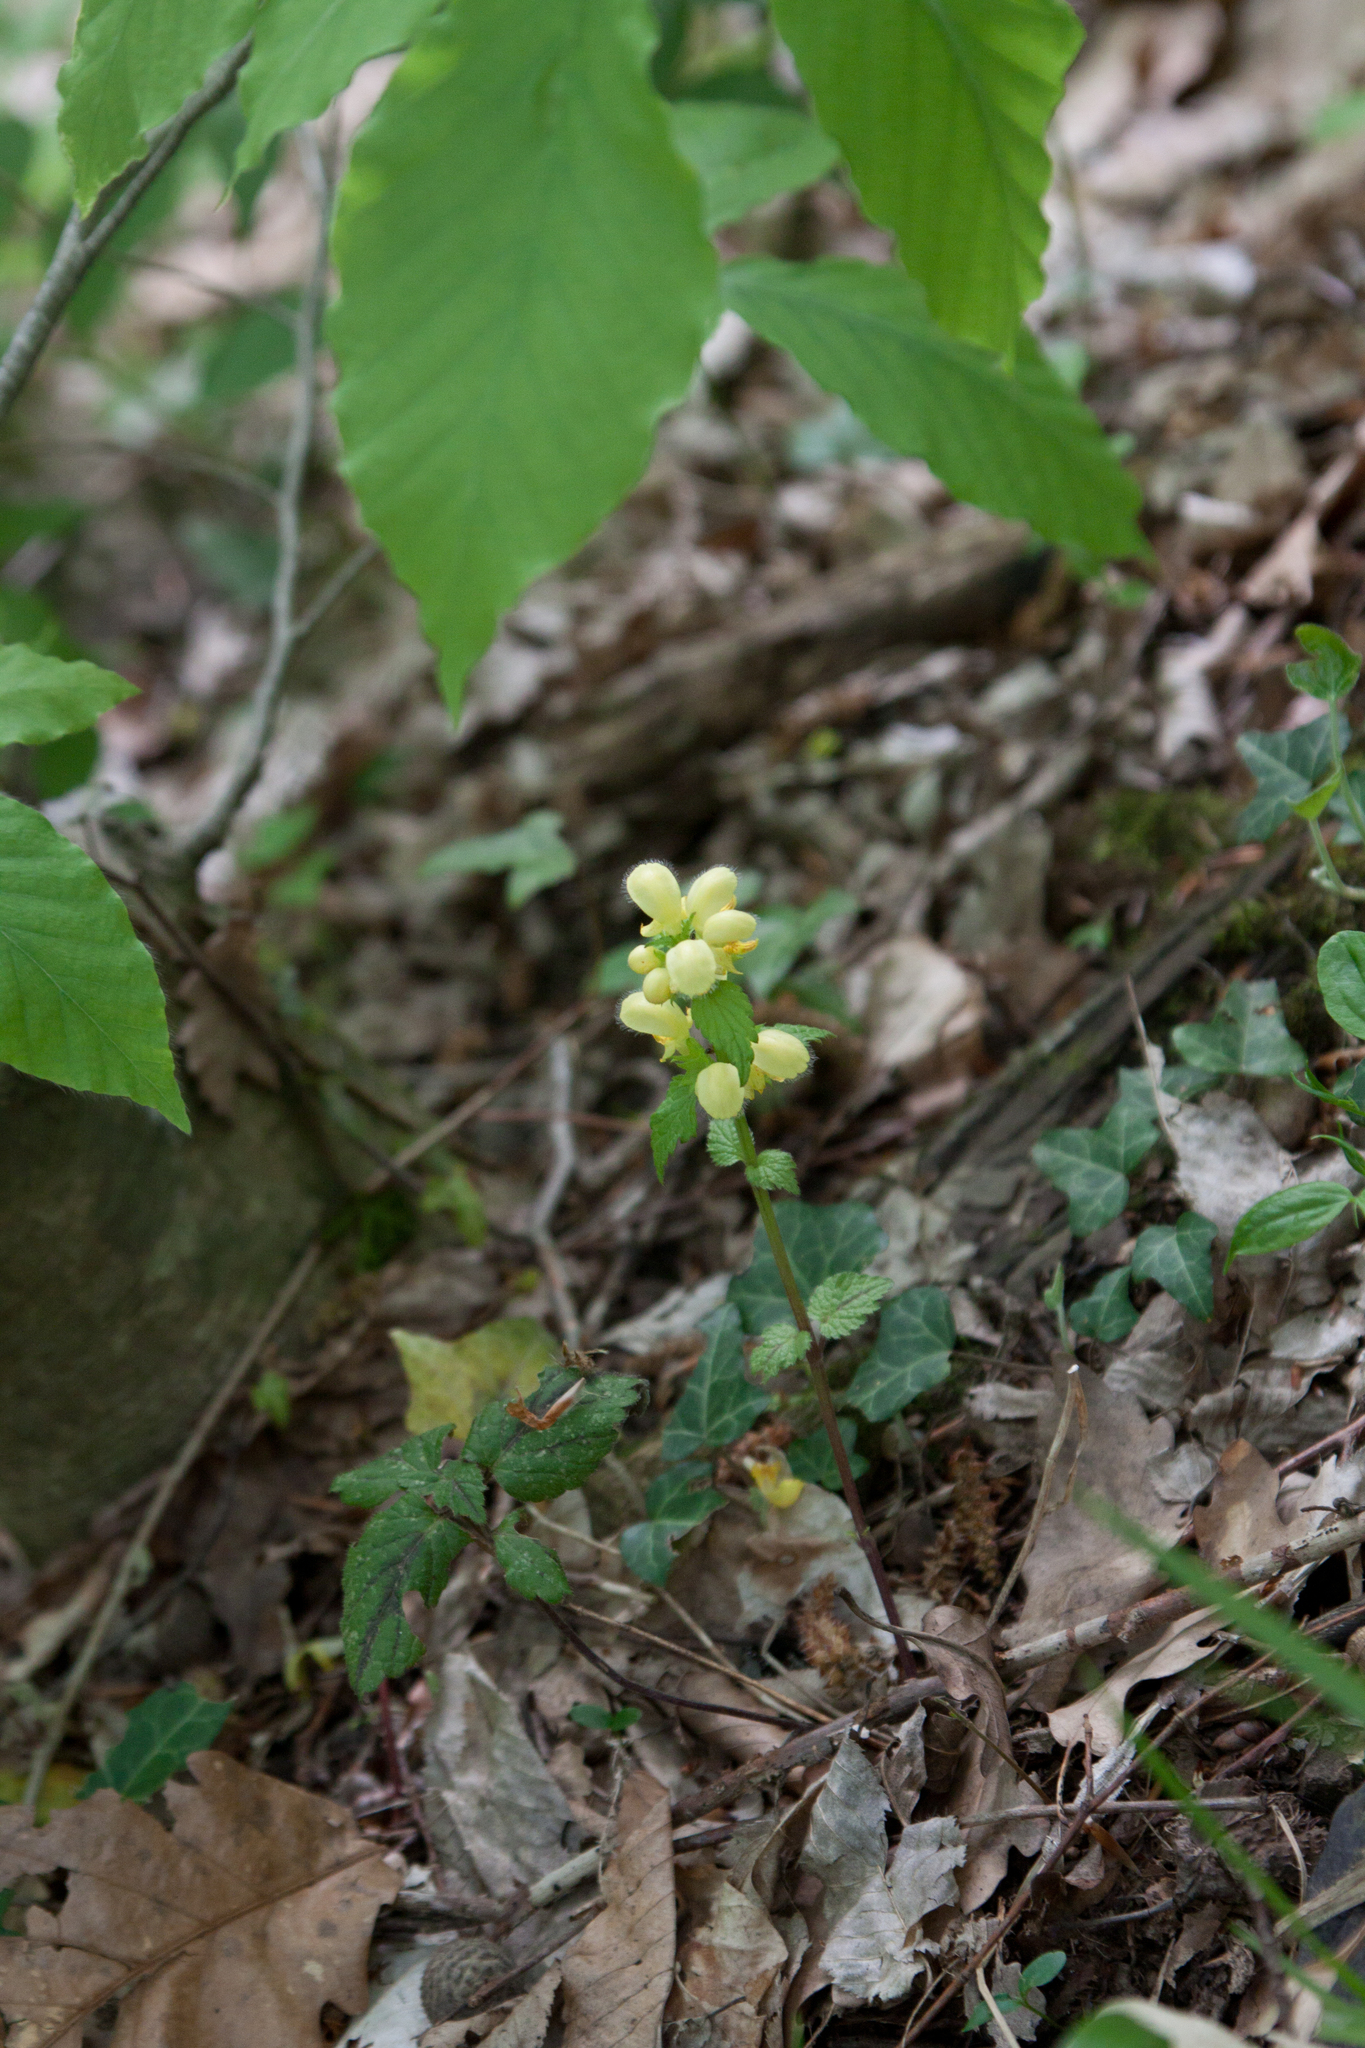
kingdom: Plantae
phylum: Tracheophyta
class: Magnoliopsida
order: Lamiales
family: Lamiaceae
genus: Lamium
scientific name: Lamium galeobdolon
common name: Yellow archangel
